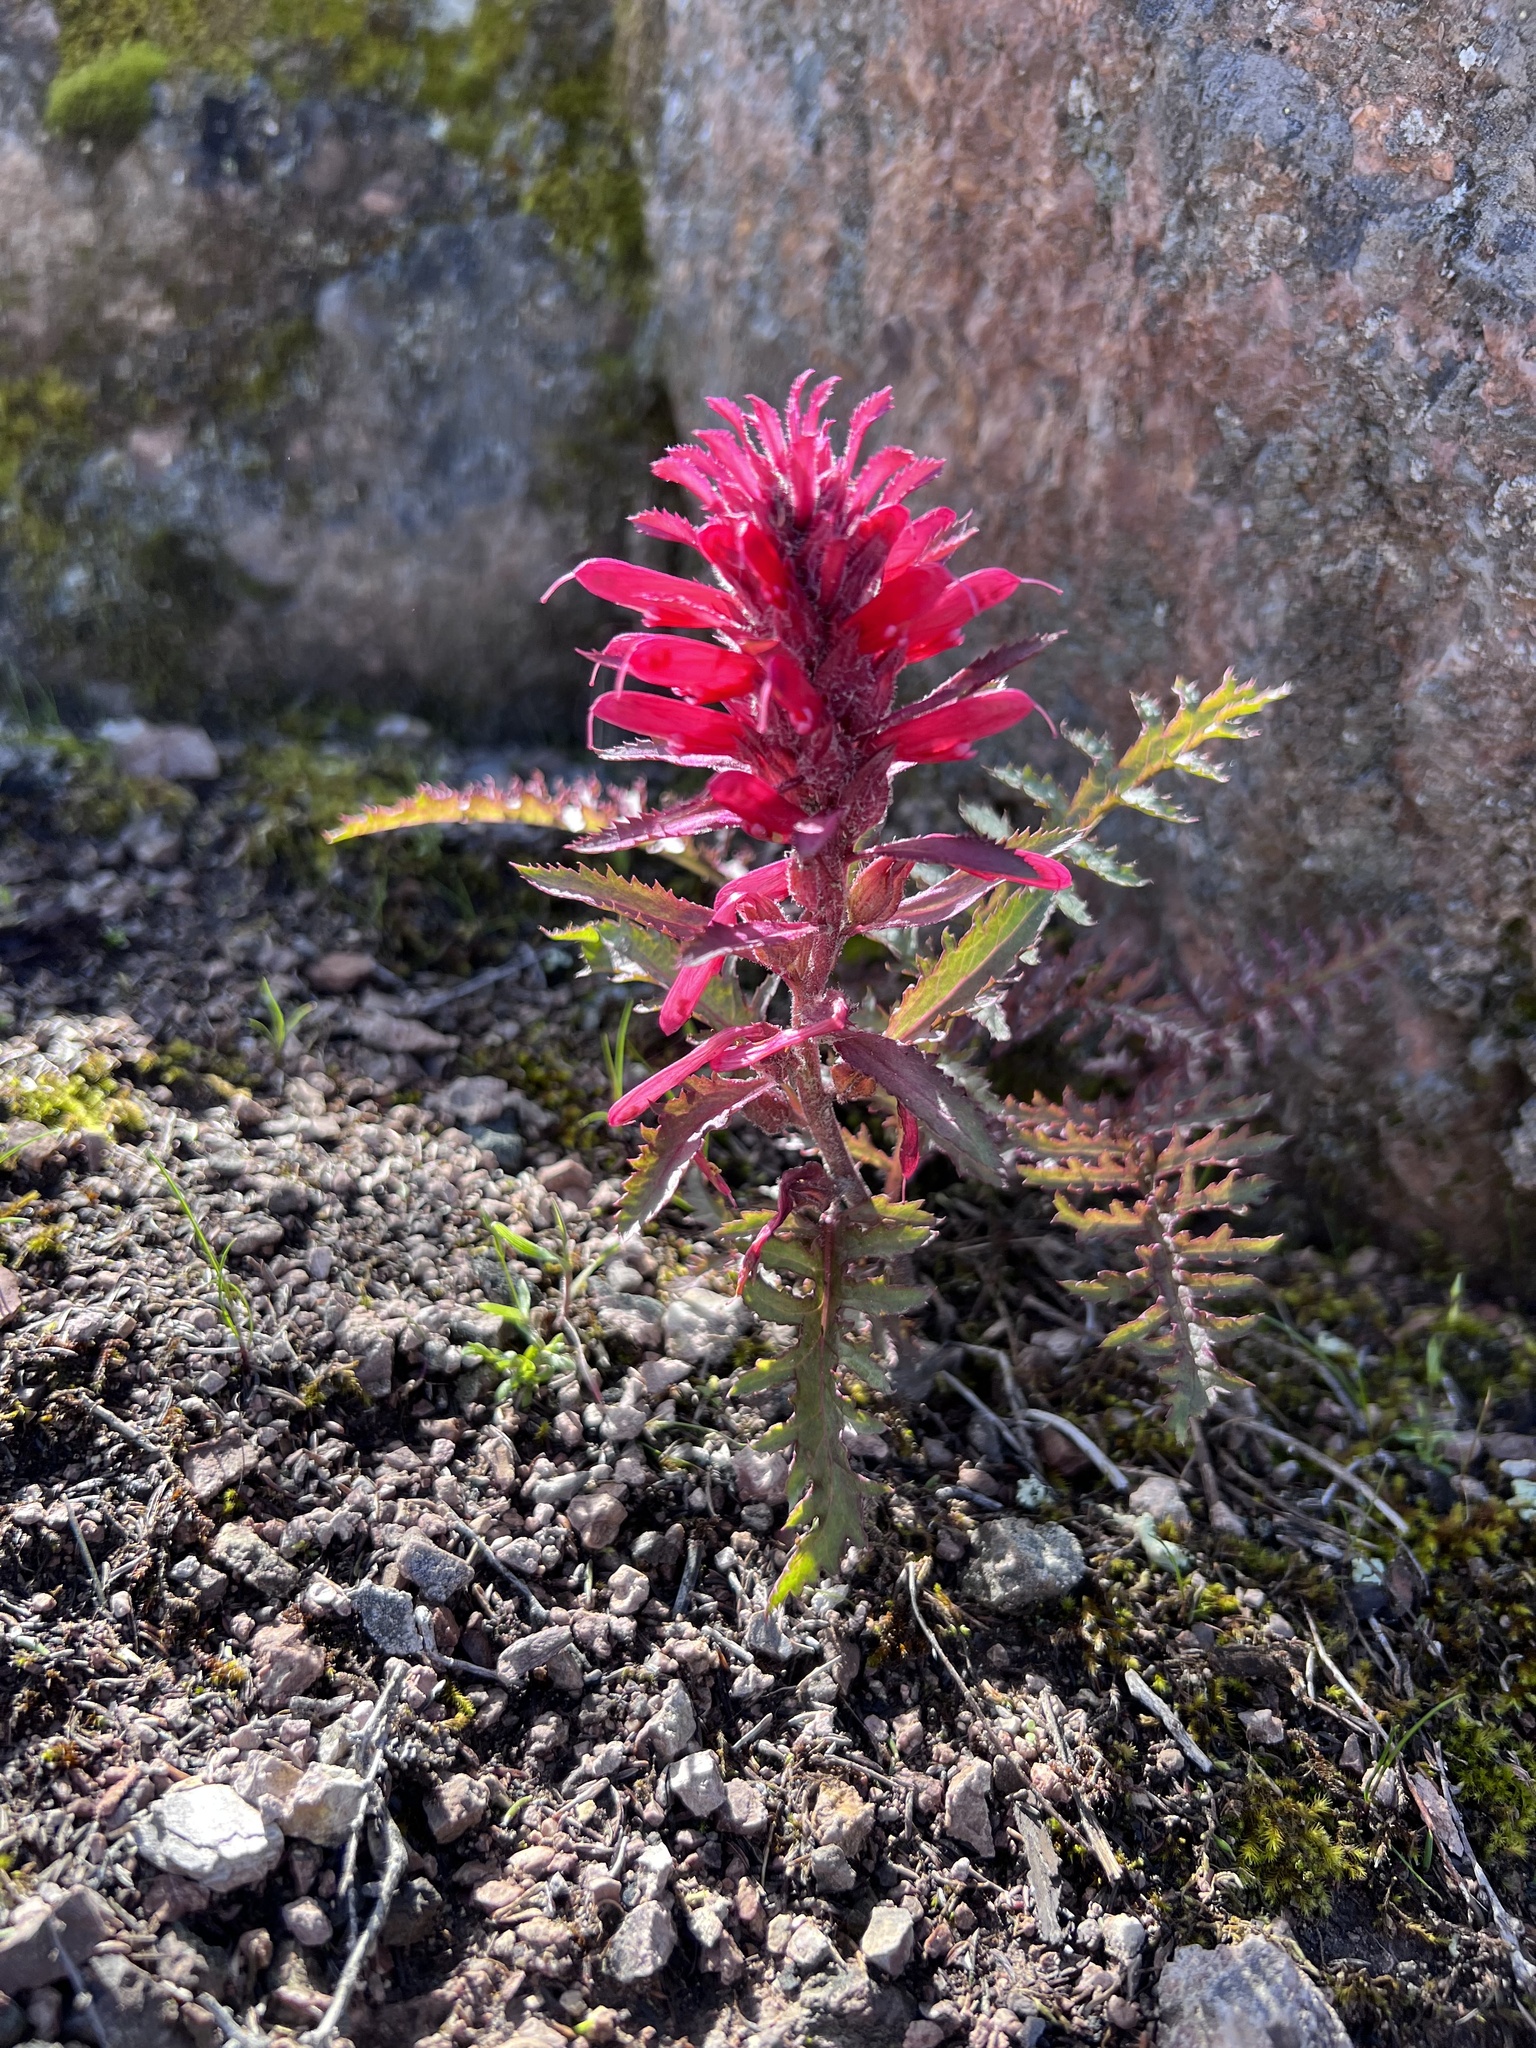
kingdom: Plantae
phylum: Tracheophyta
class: Magnoliopsida
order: Lamiales
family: Orobanchaceae
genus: Pedicularis
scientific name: Pedicularis densiflora
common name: Indian warrior
